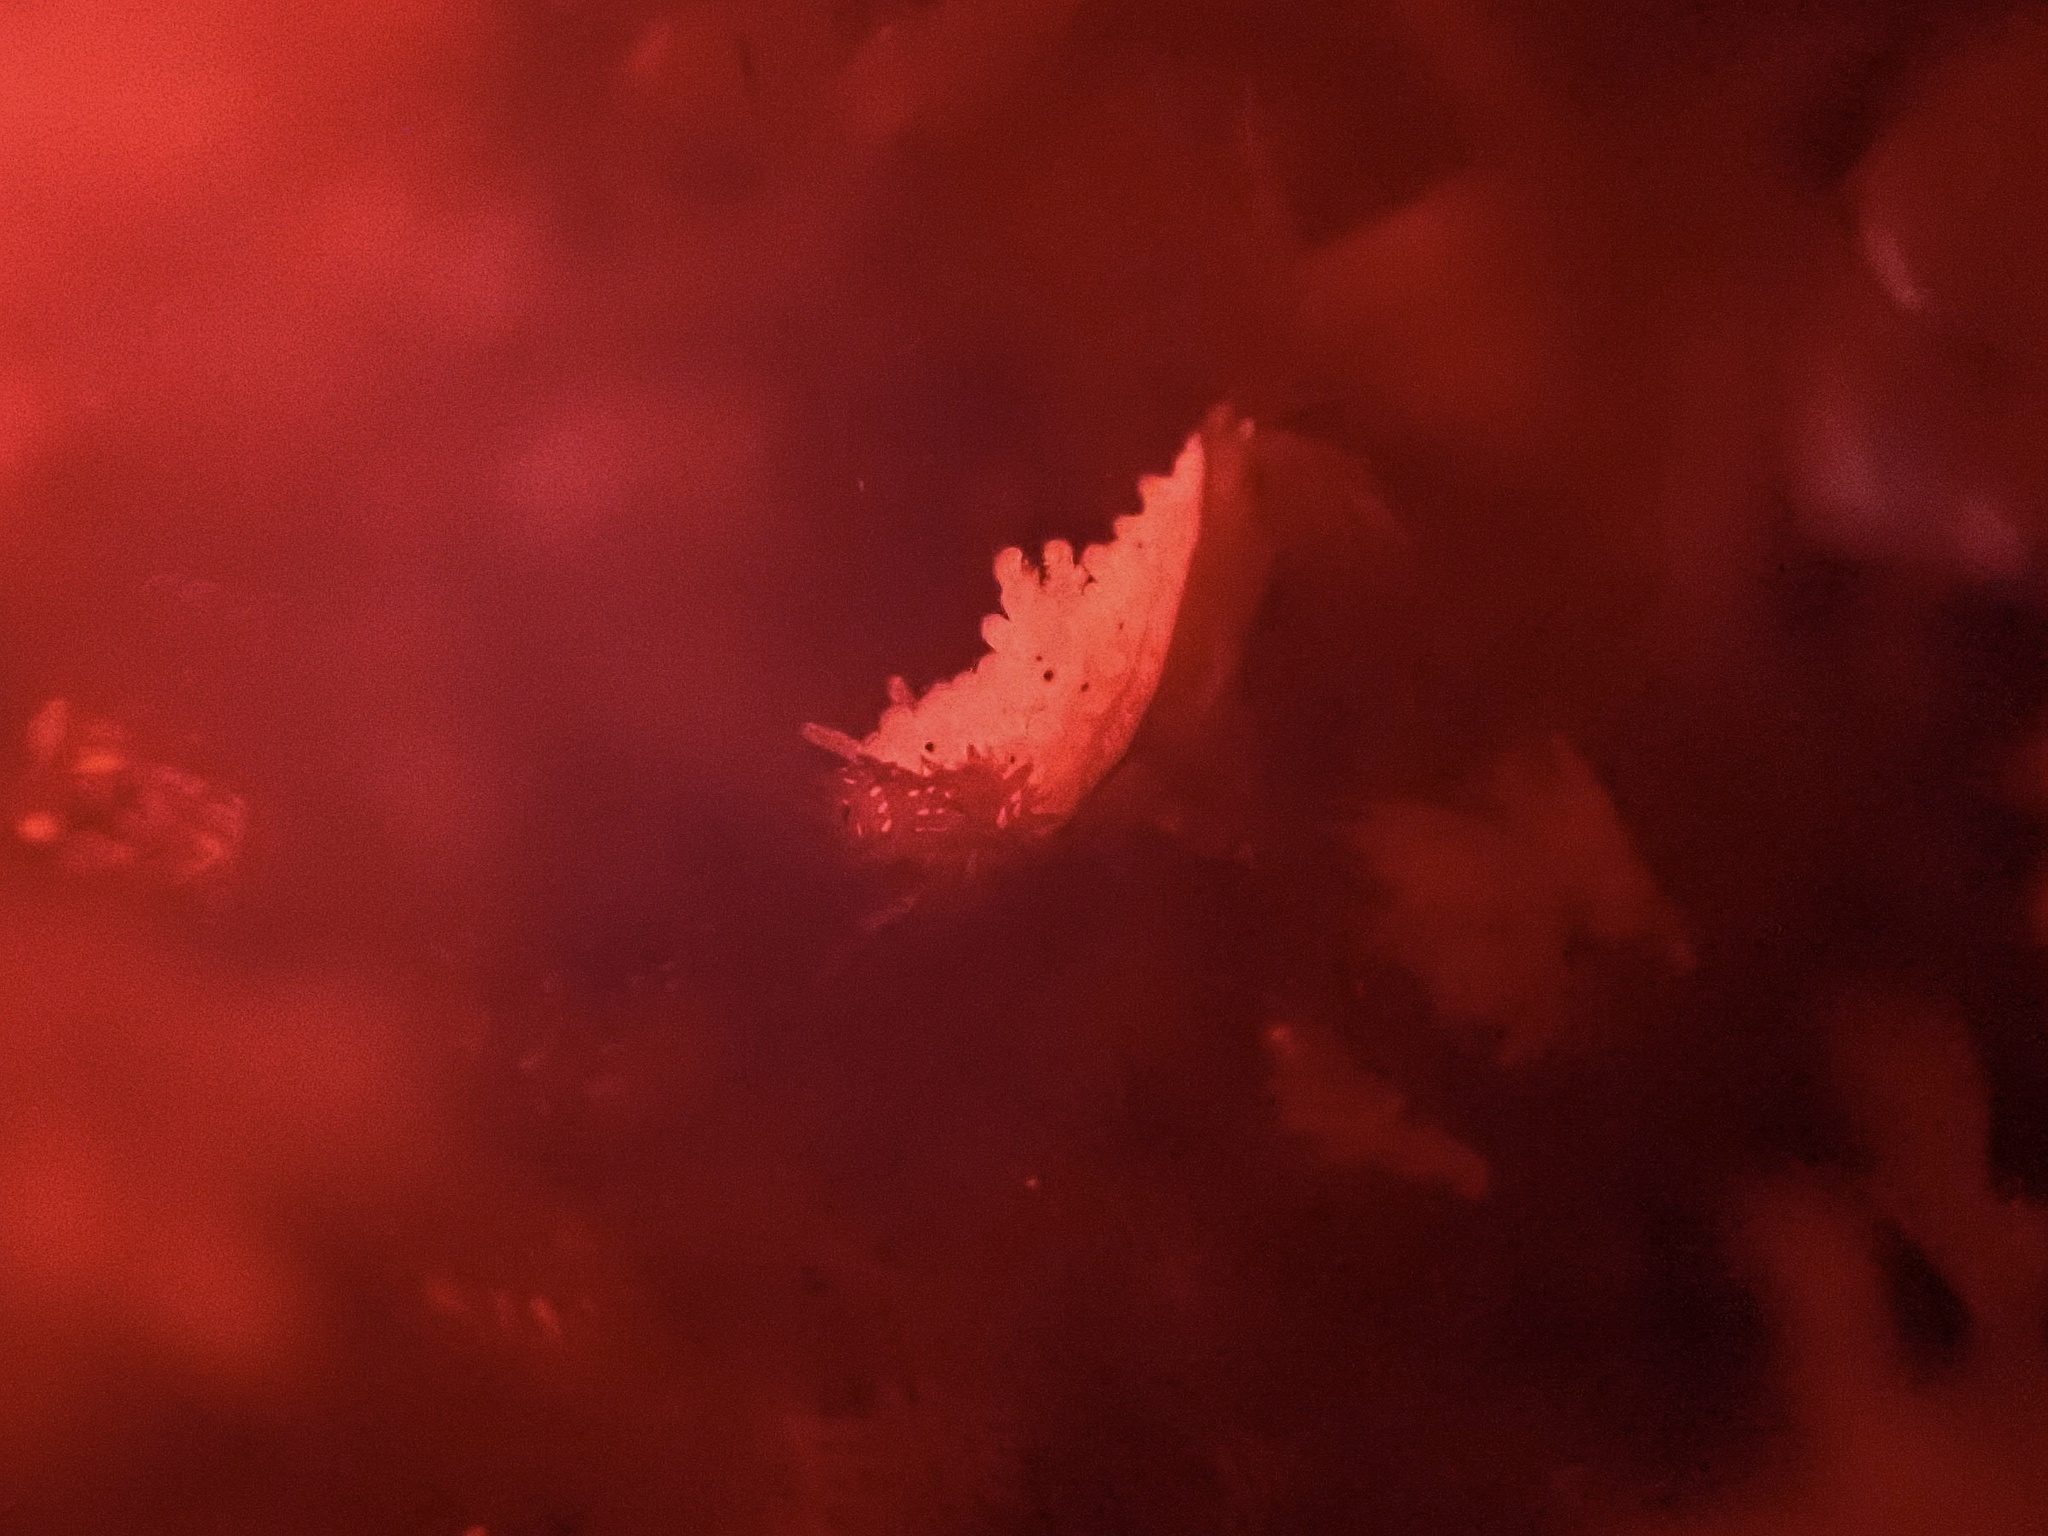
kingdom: Animalia
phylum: Mollusca
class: Gastropoda
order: Nudibranchia
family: Aegiridae
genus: Aegires
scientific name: Aegires albopunctatus
